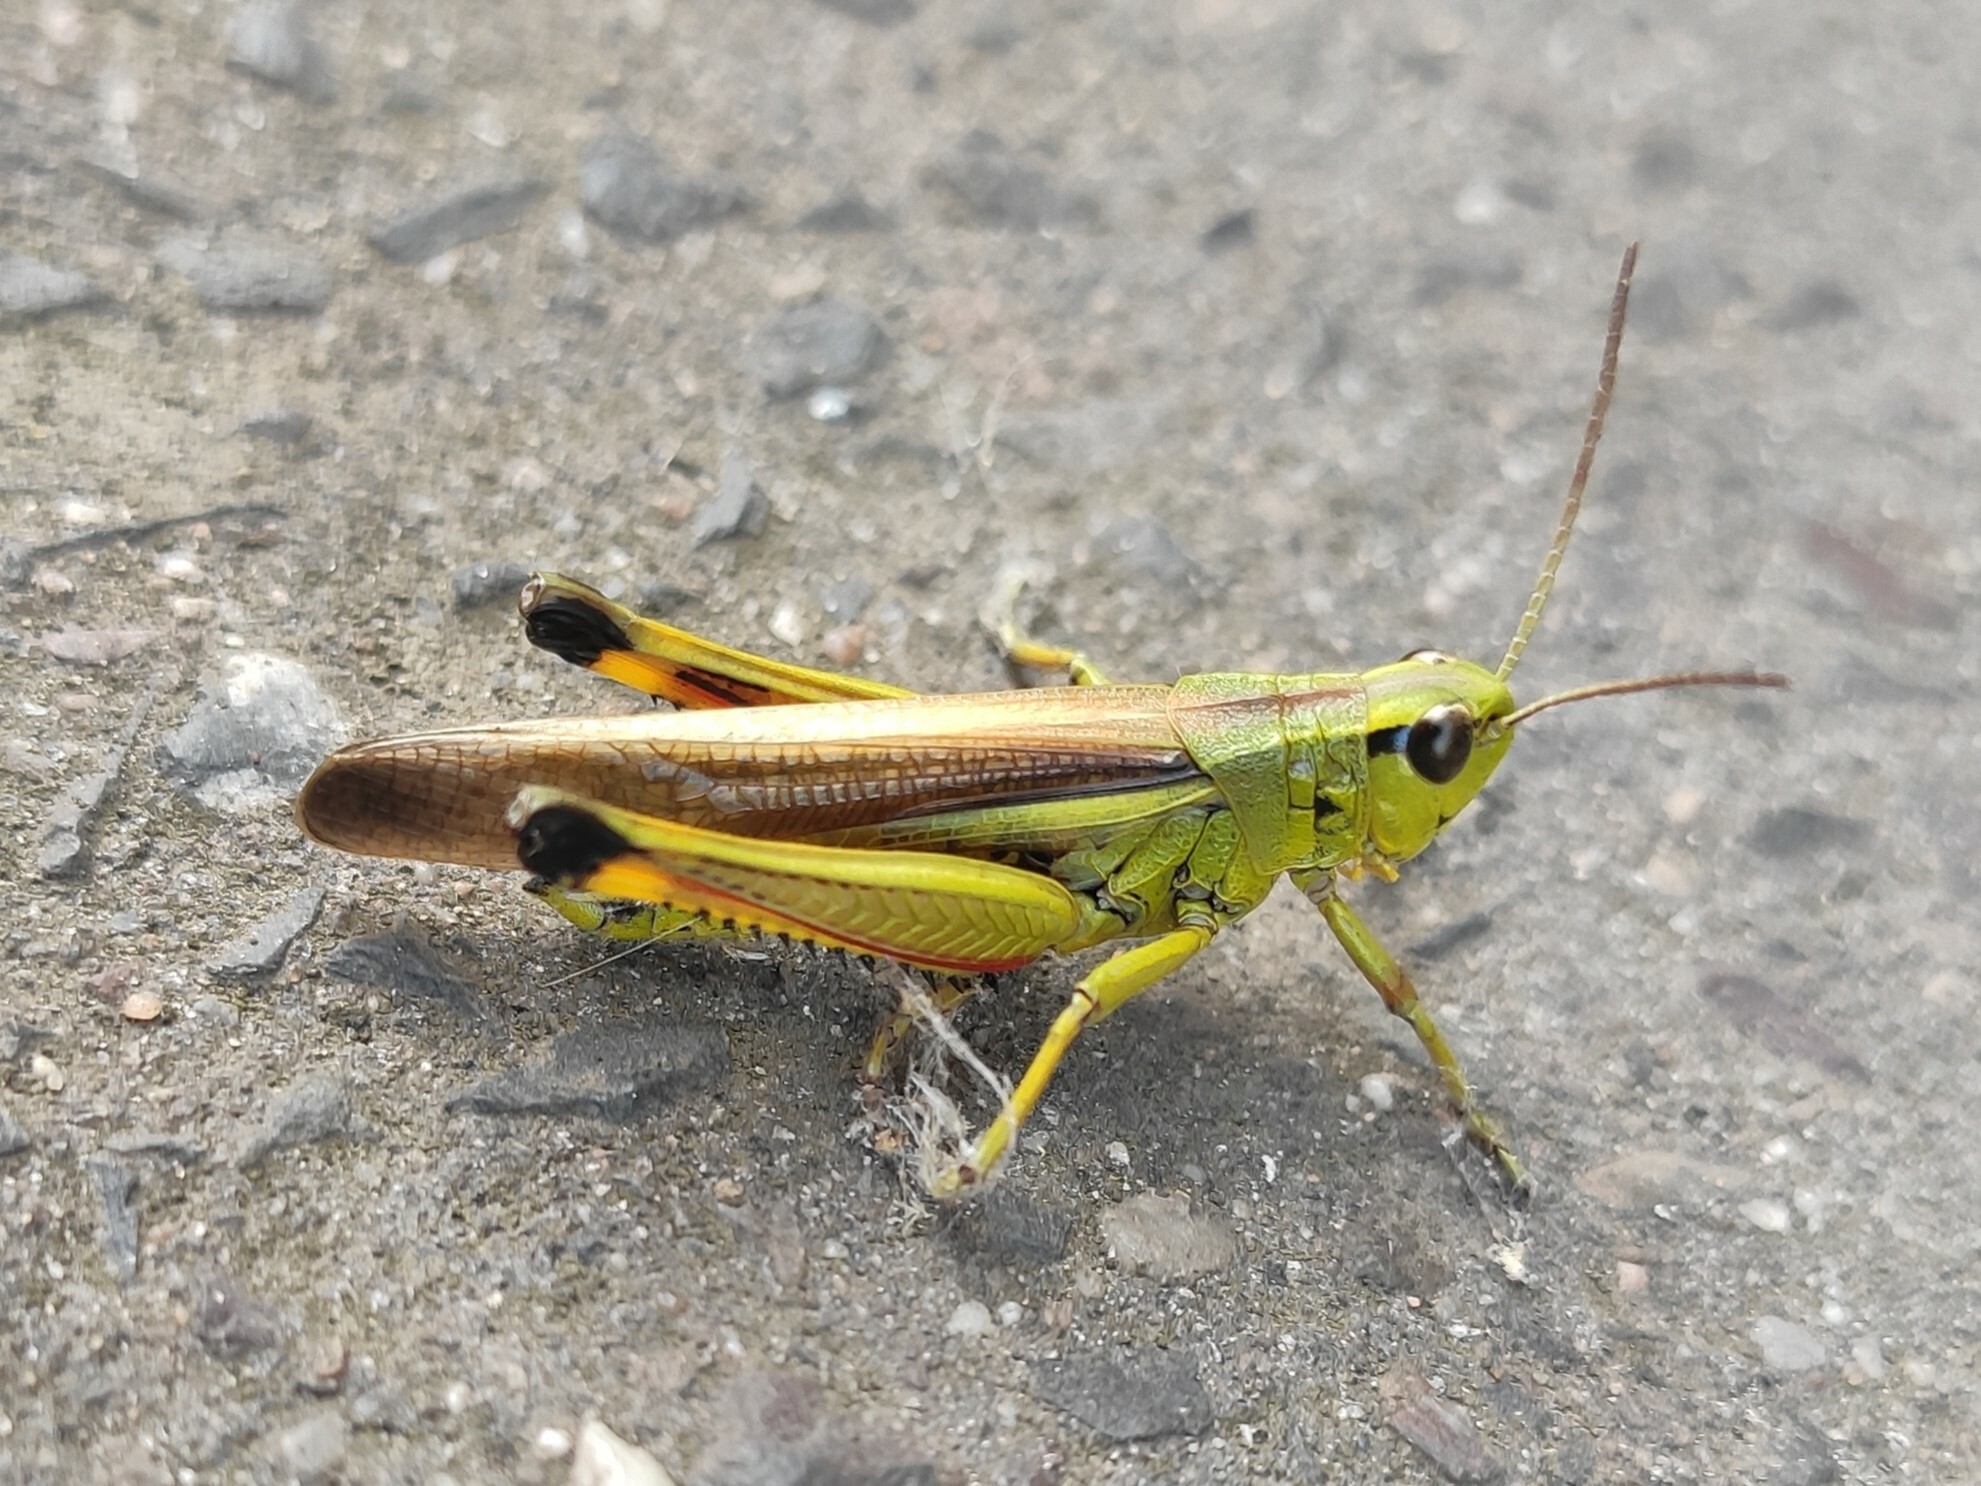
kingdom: Animalia
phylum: Arthropoda
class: Insecta
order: Orthoptera
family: Acrididae
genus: Stethophyma
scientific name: Stethophyma grossum
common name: Large marsh grasshopper
